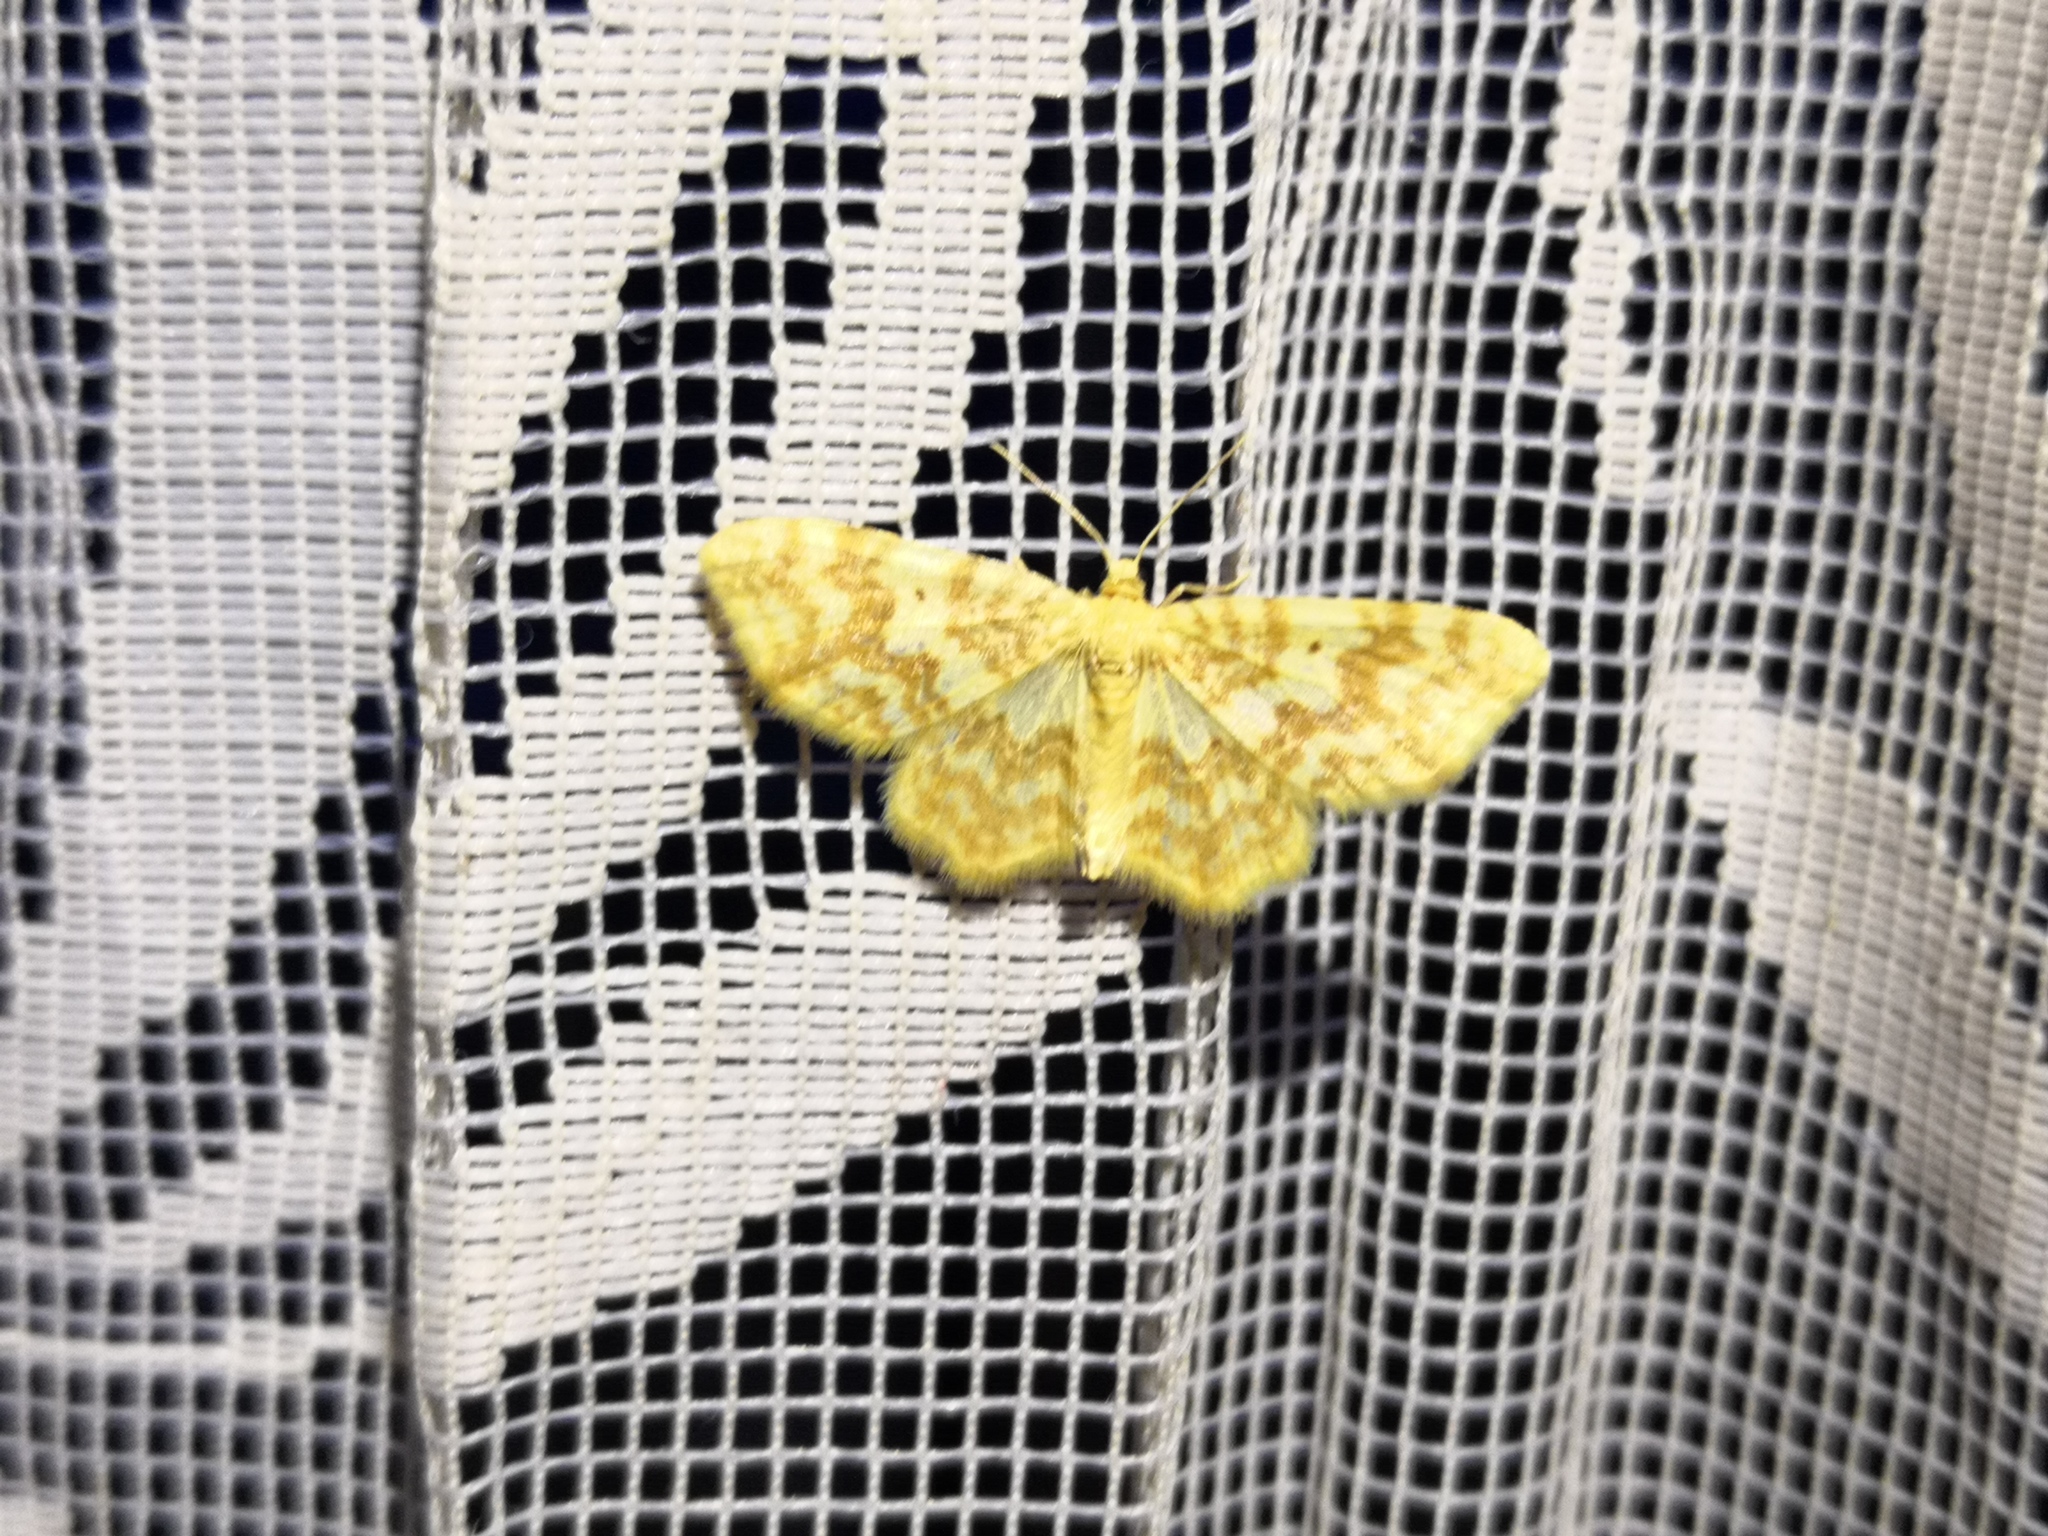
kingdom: Animalia
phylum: Arthropoda
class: Insecta
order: Lepidoptera
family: Geometridae
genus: Hydrelia
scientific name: Hydrelia flammeolaria
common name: Small yellow wave
